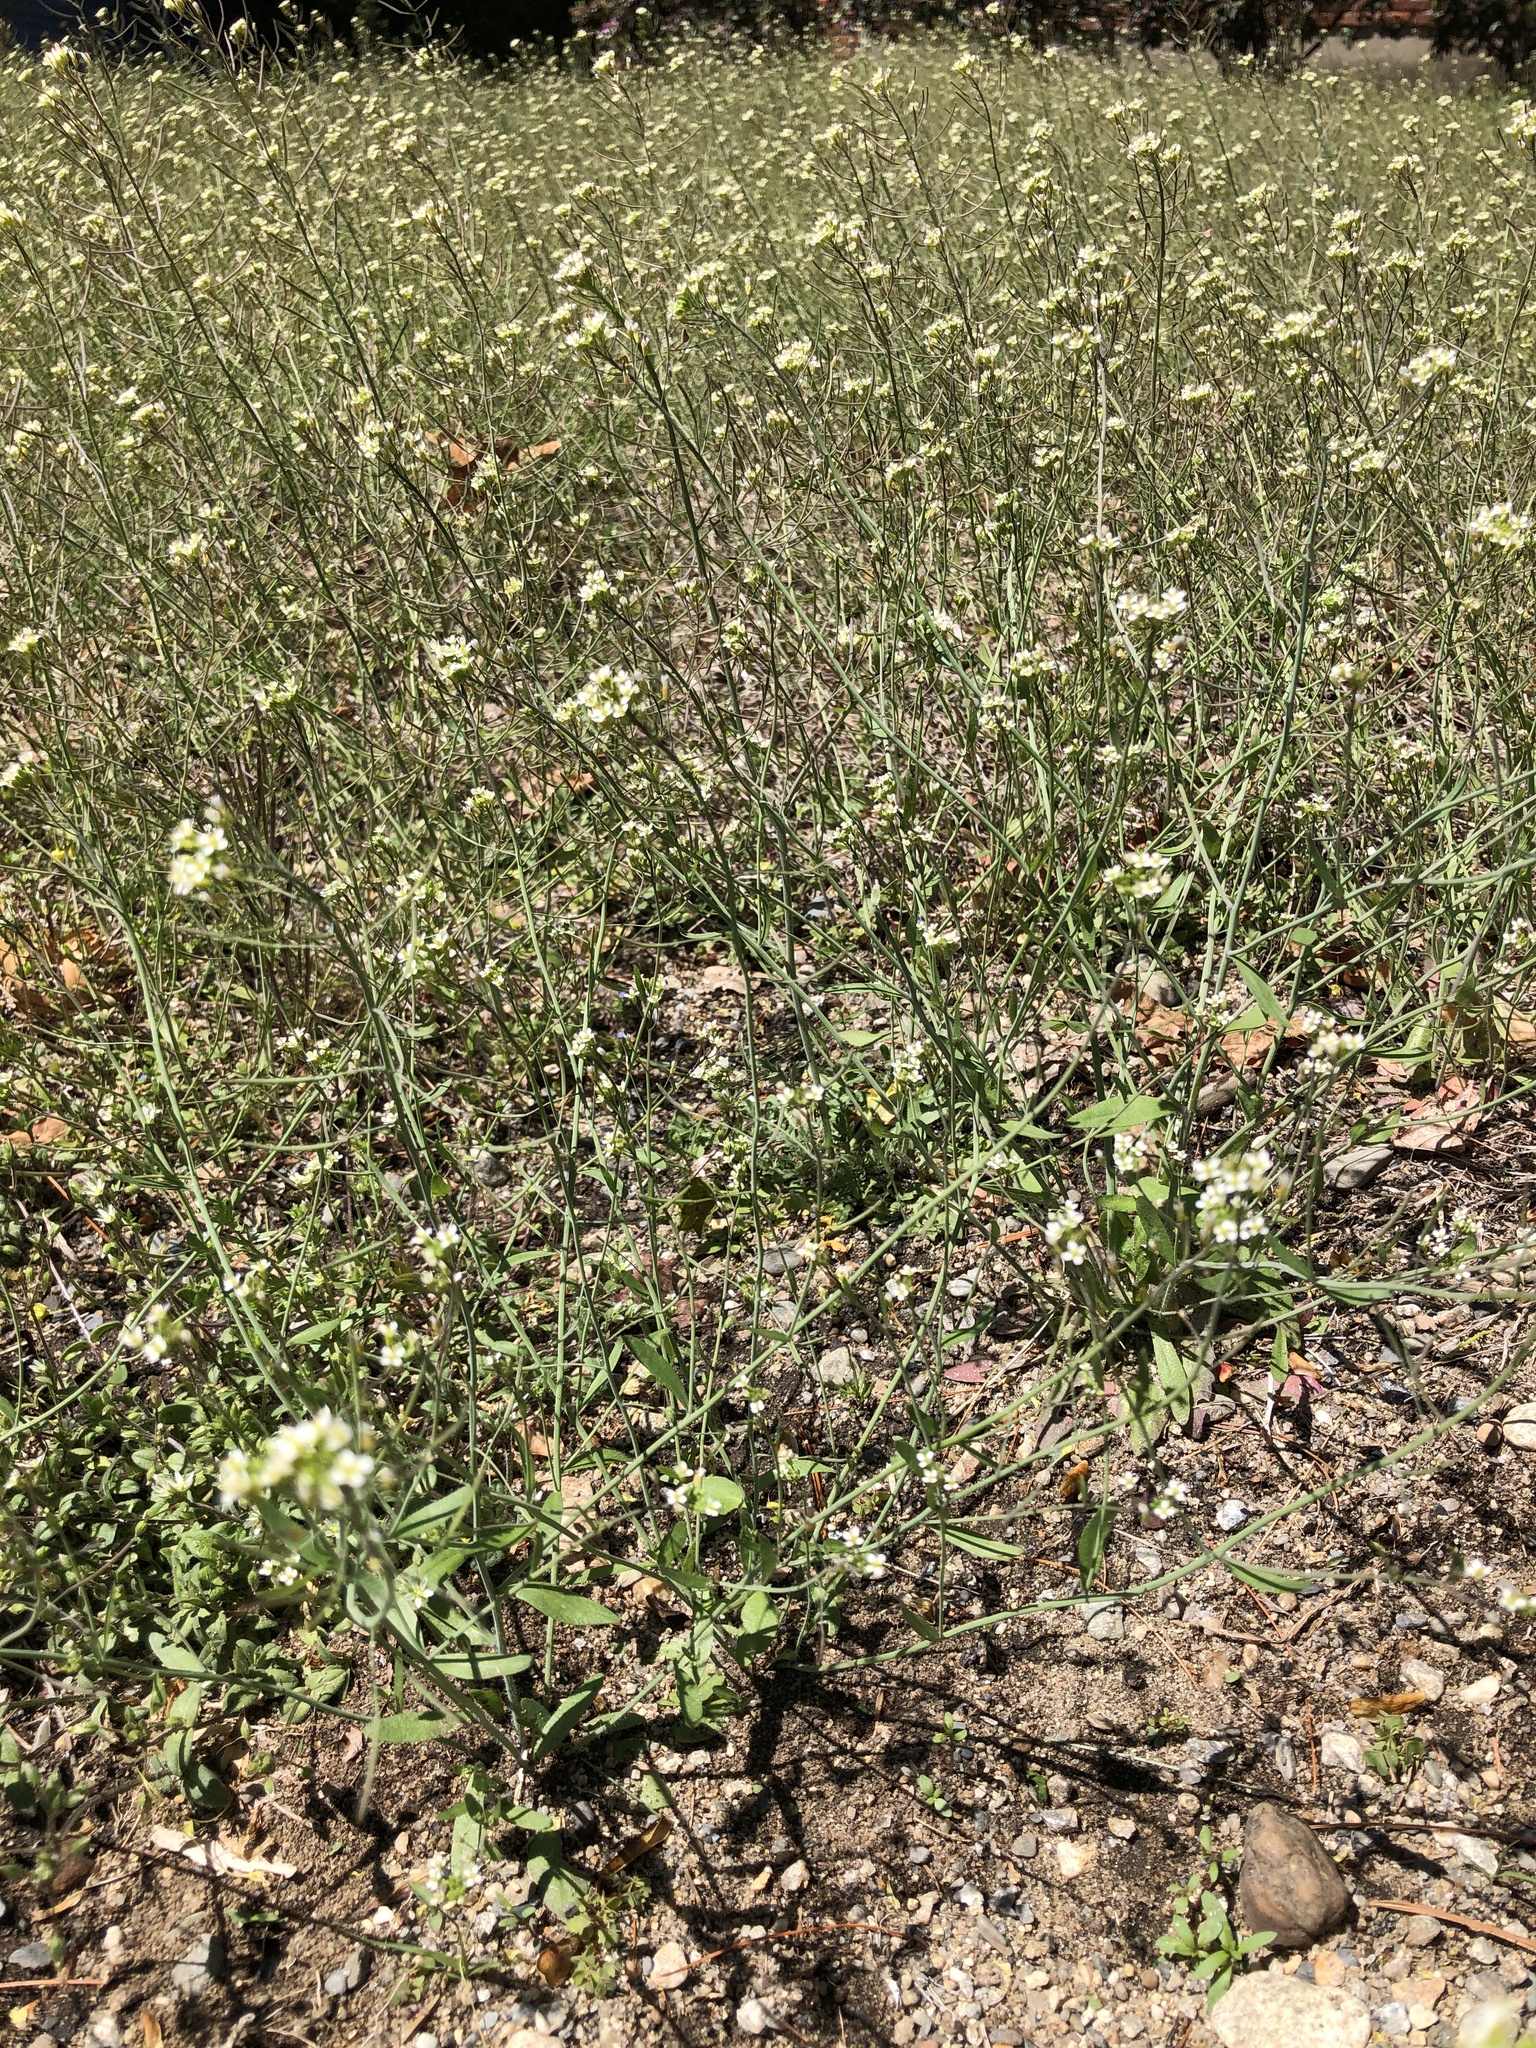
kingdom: Plantae
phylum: Tracheophyta
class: Magnoliopsida
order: Brassicales
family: Brassicaceae
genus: Arabidopsis
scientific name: Arabidopsis thaliana
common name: Thale cress
